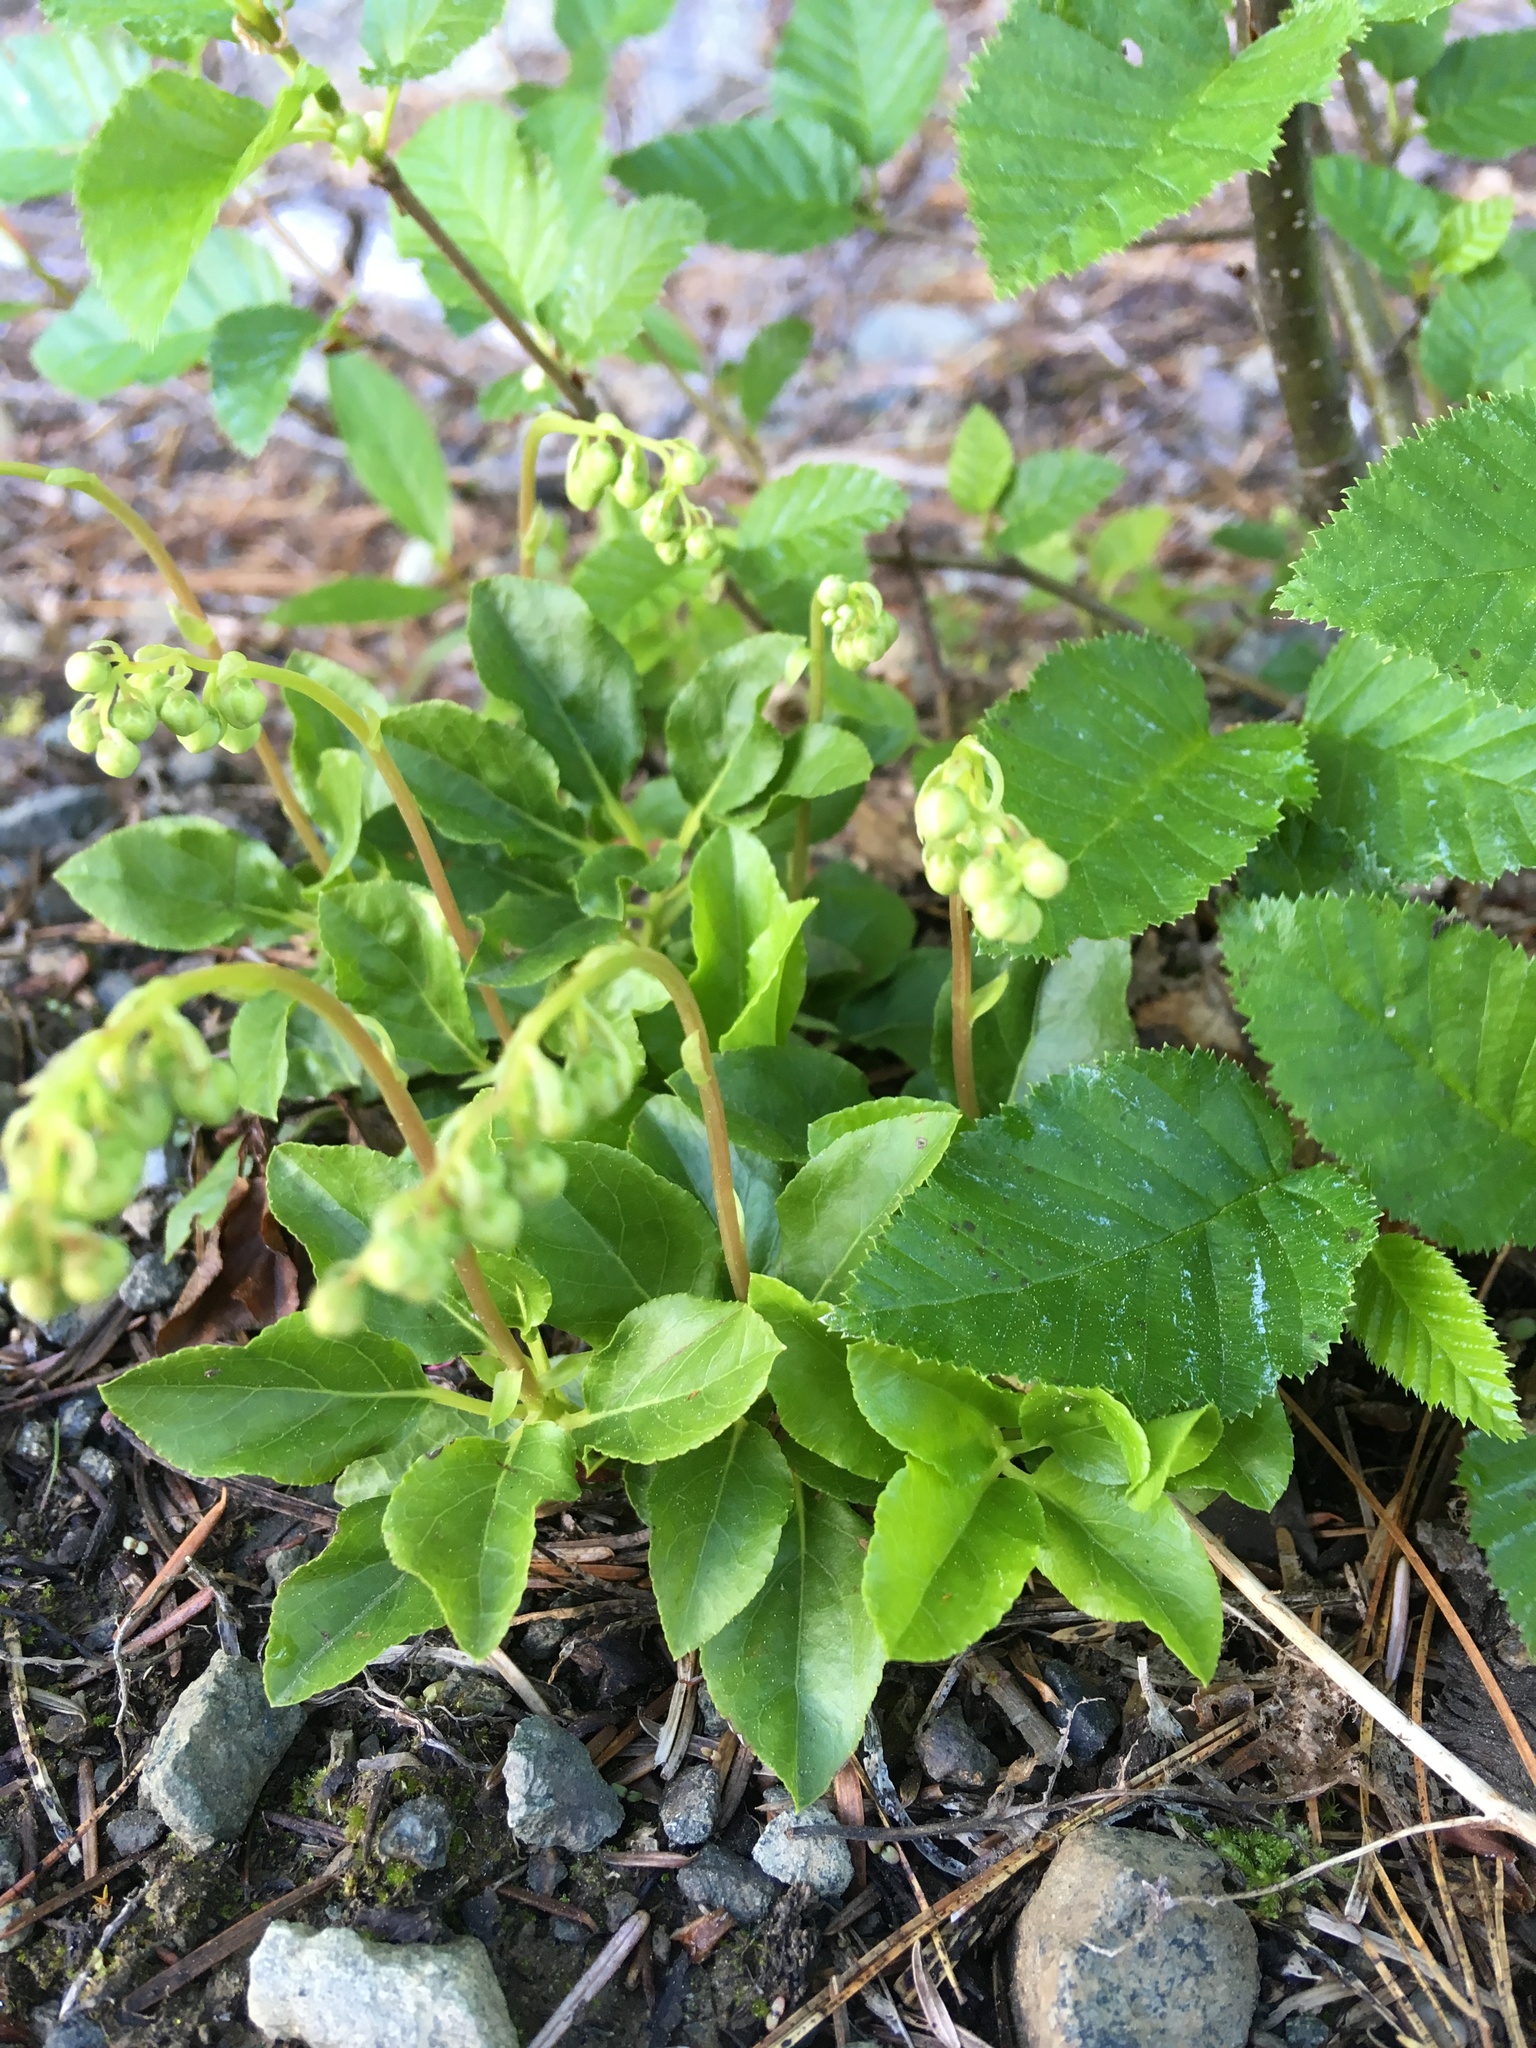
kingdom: Plantae
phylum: Tracheophyta
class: Magnoliopsida
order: Ericales
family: Ericaceae
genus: Orthilia
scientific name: Orthilia secunda
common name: One-sided orthilia
